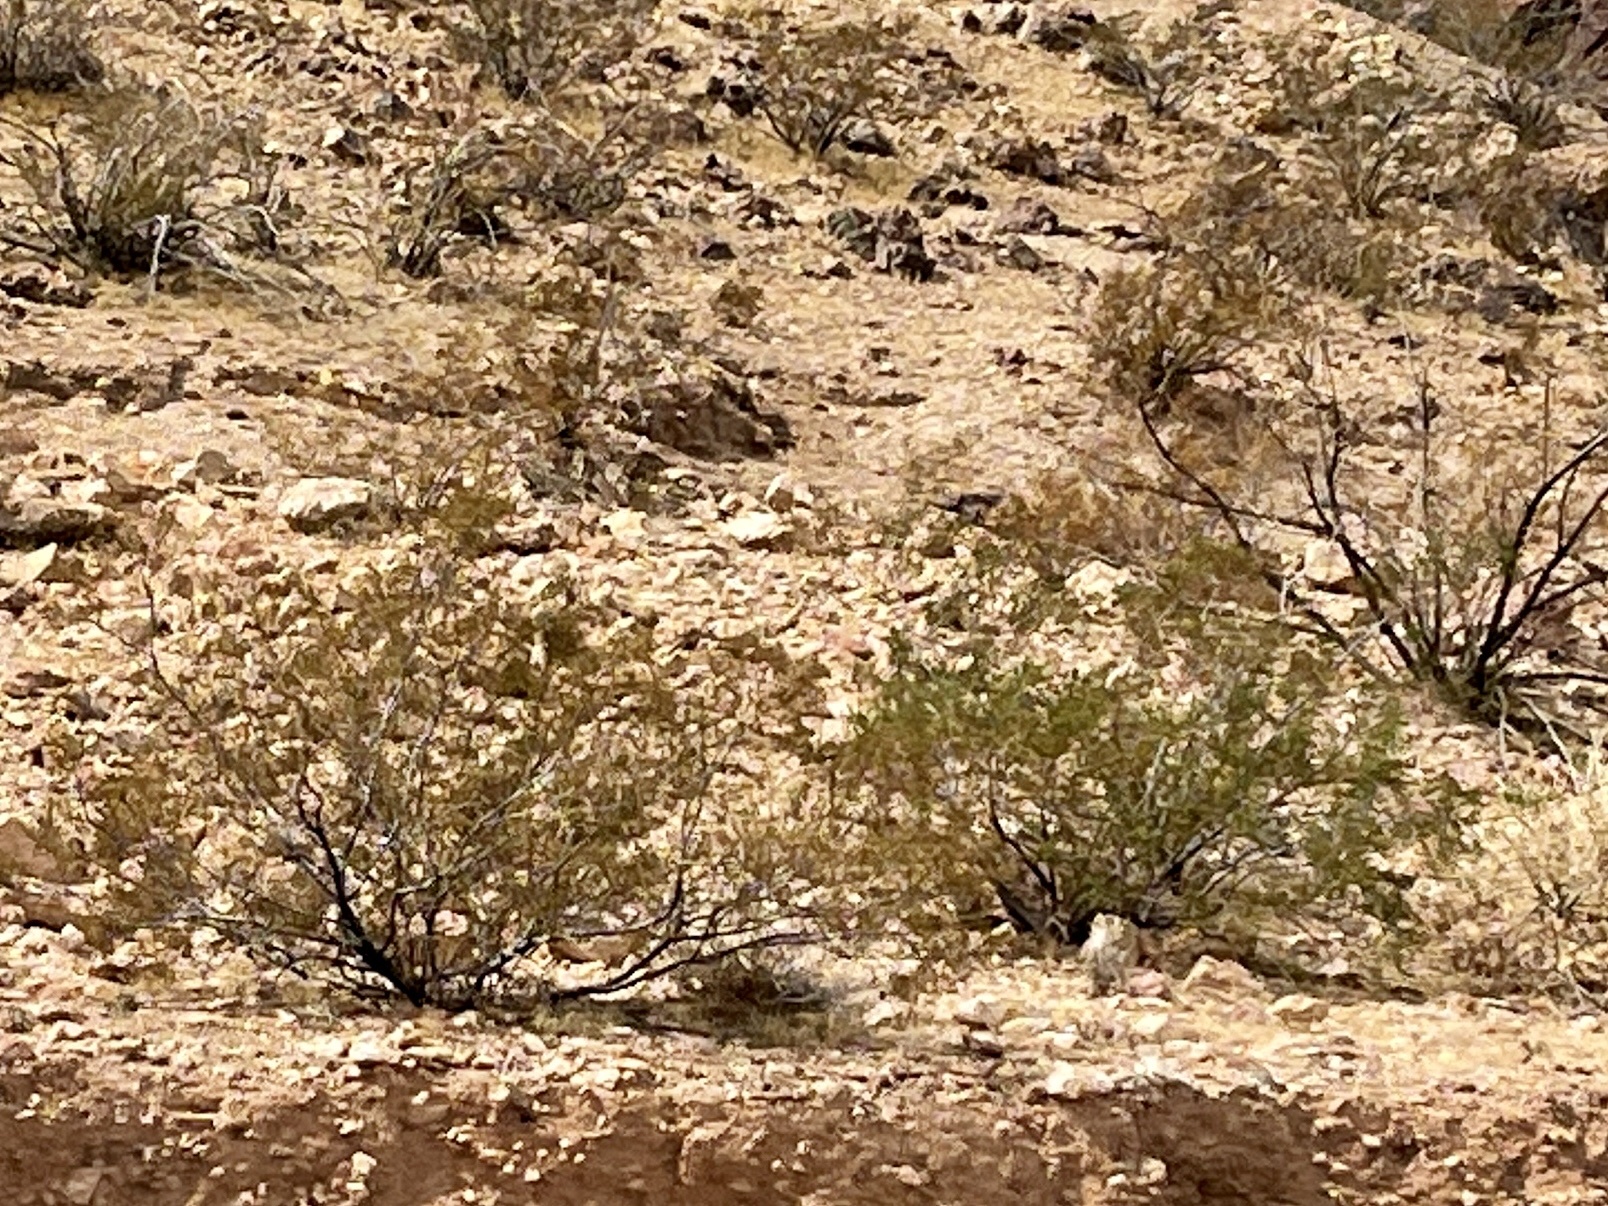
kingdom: Plantae
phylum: Tracheophyta
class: Magnoliopsida
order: Zygophyllales
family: Zygophyllaceae
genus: Larrea
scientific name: Larrea tridentata
